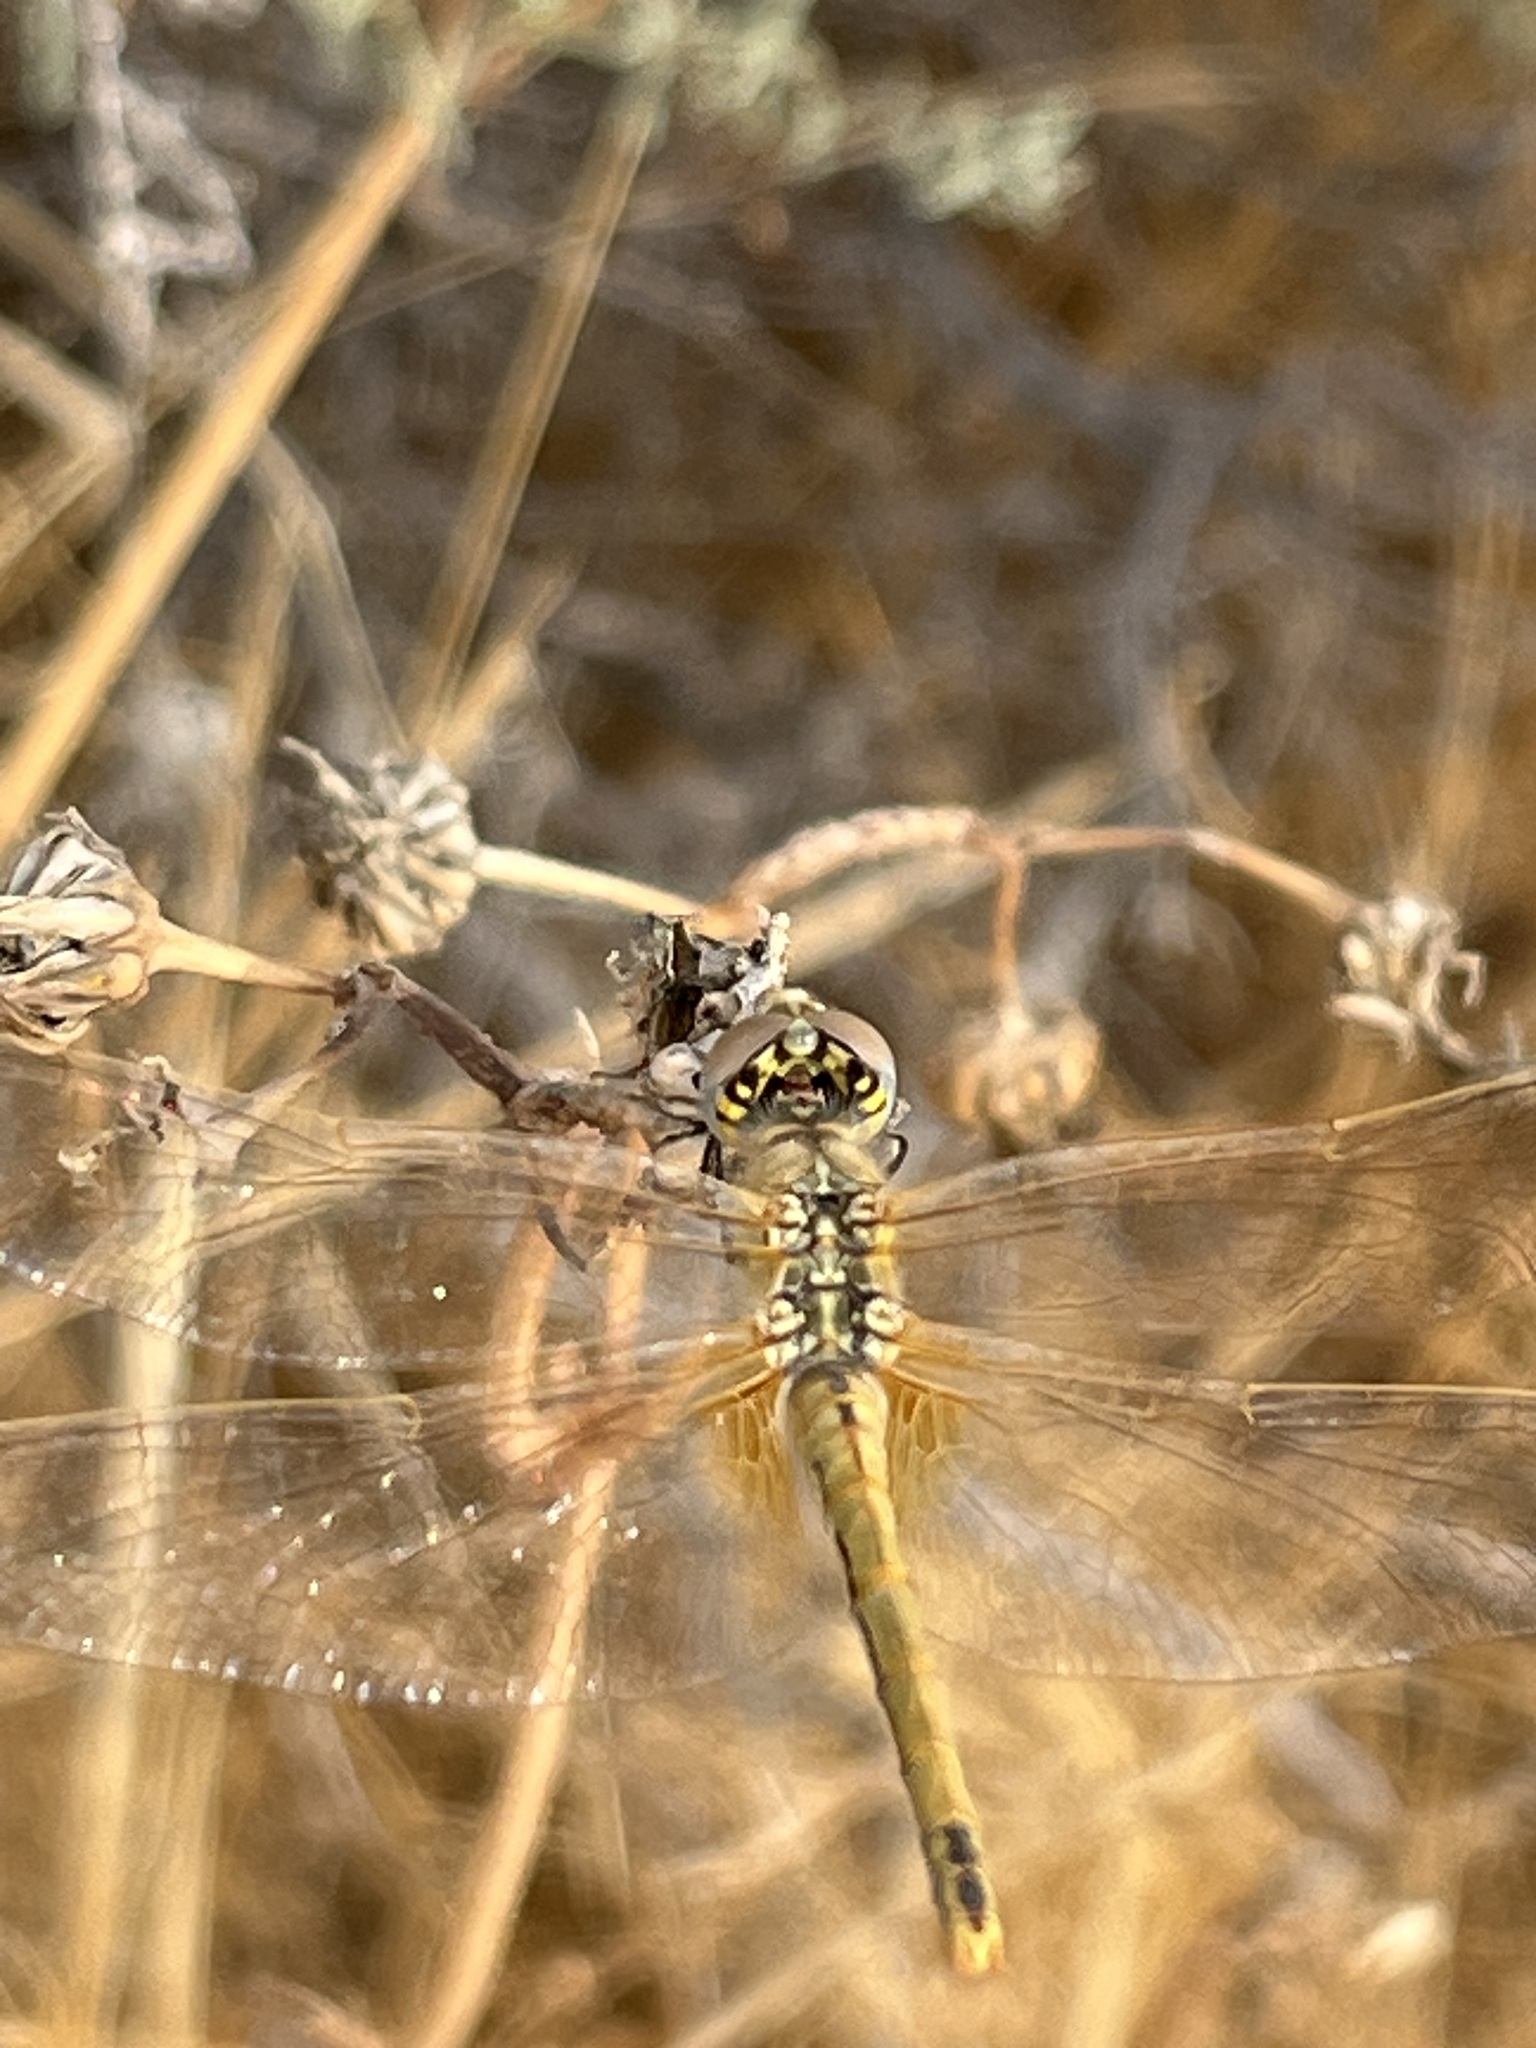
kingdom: Animalia
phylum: Arthropoda
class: Insecta
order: Odonata
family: Libellulidae
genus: Sympetrum
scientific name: Sympetrum fonscolombii
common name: Red-veined darter
